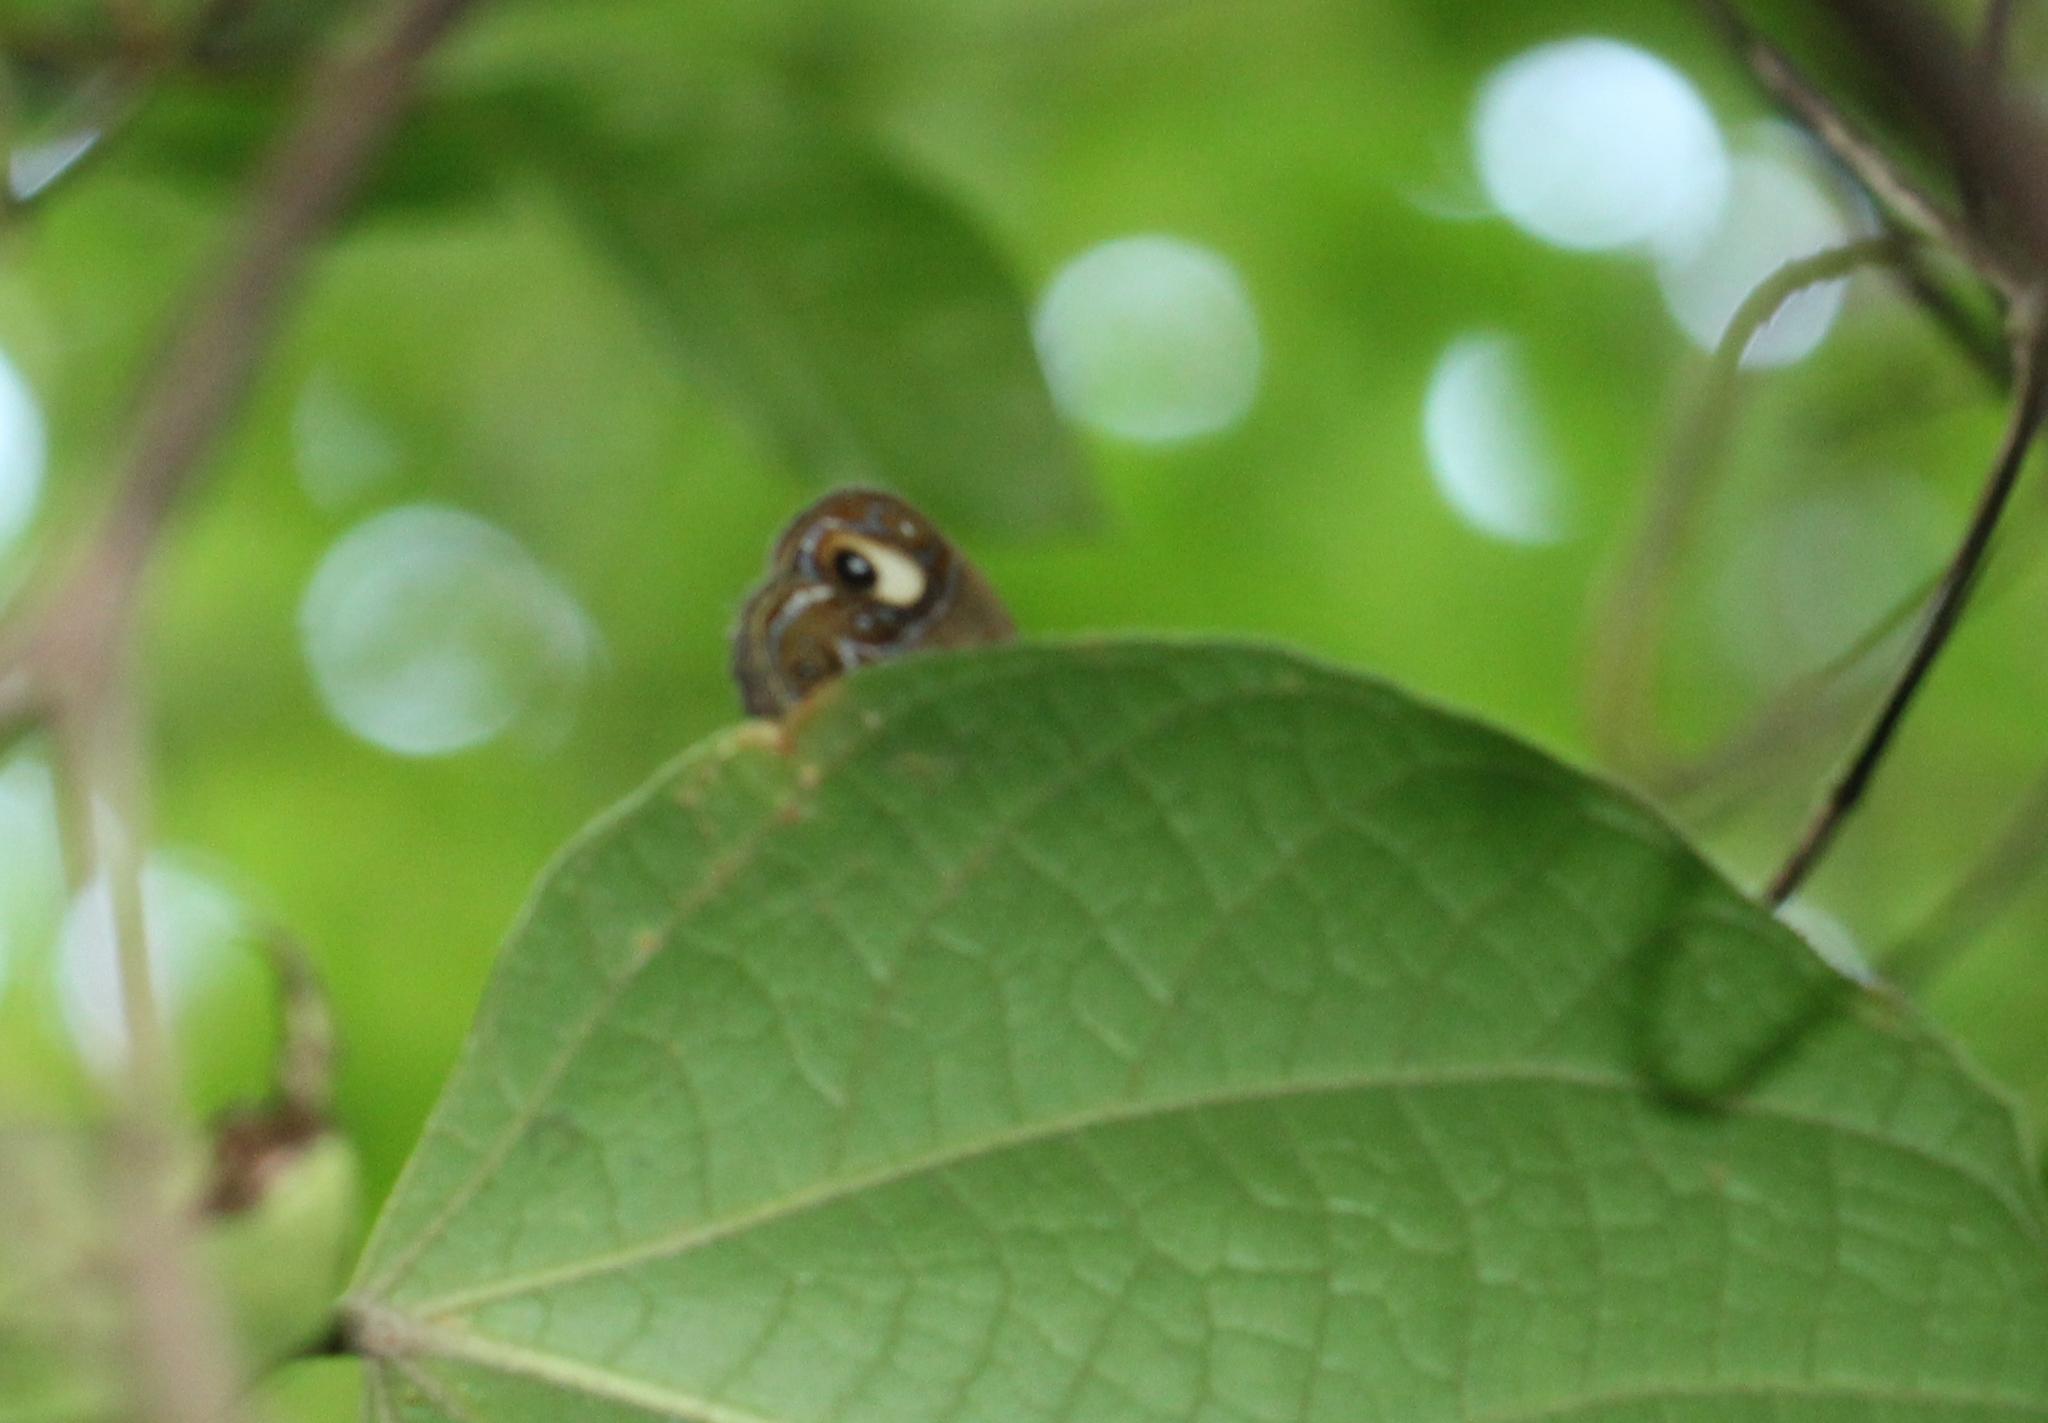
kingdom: Animalia
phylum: Arthropoda
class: Insecta
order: Lepidoptera
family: Nymphalidae
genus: Mycalesis
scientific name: Mycalesis patnia
